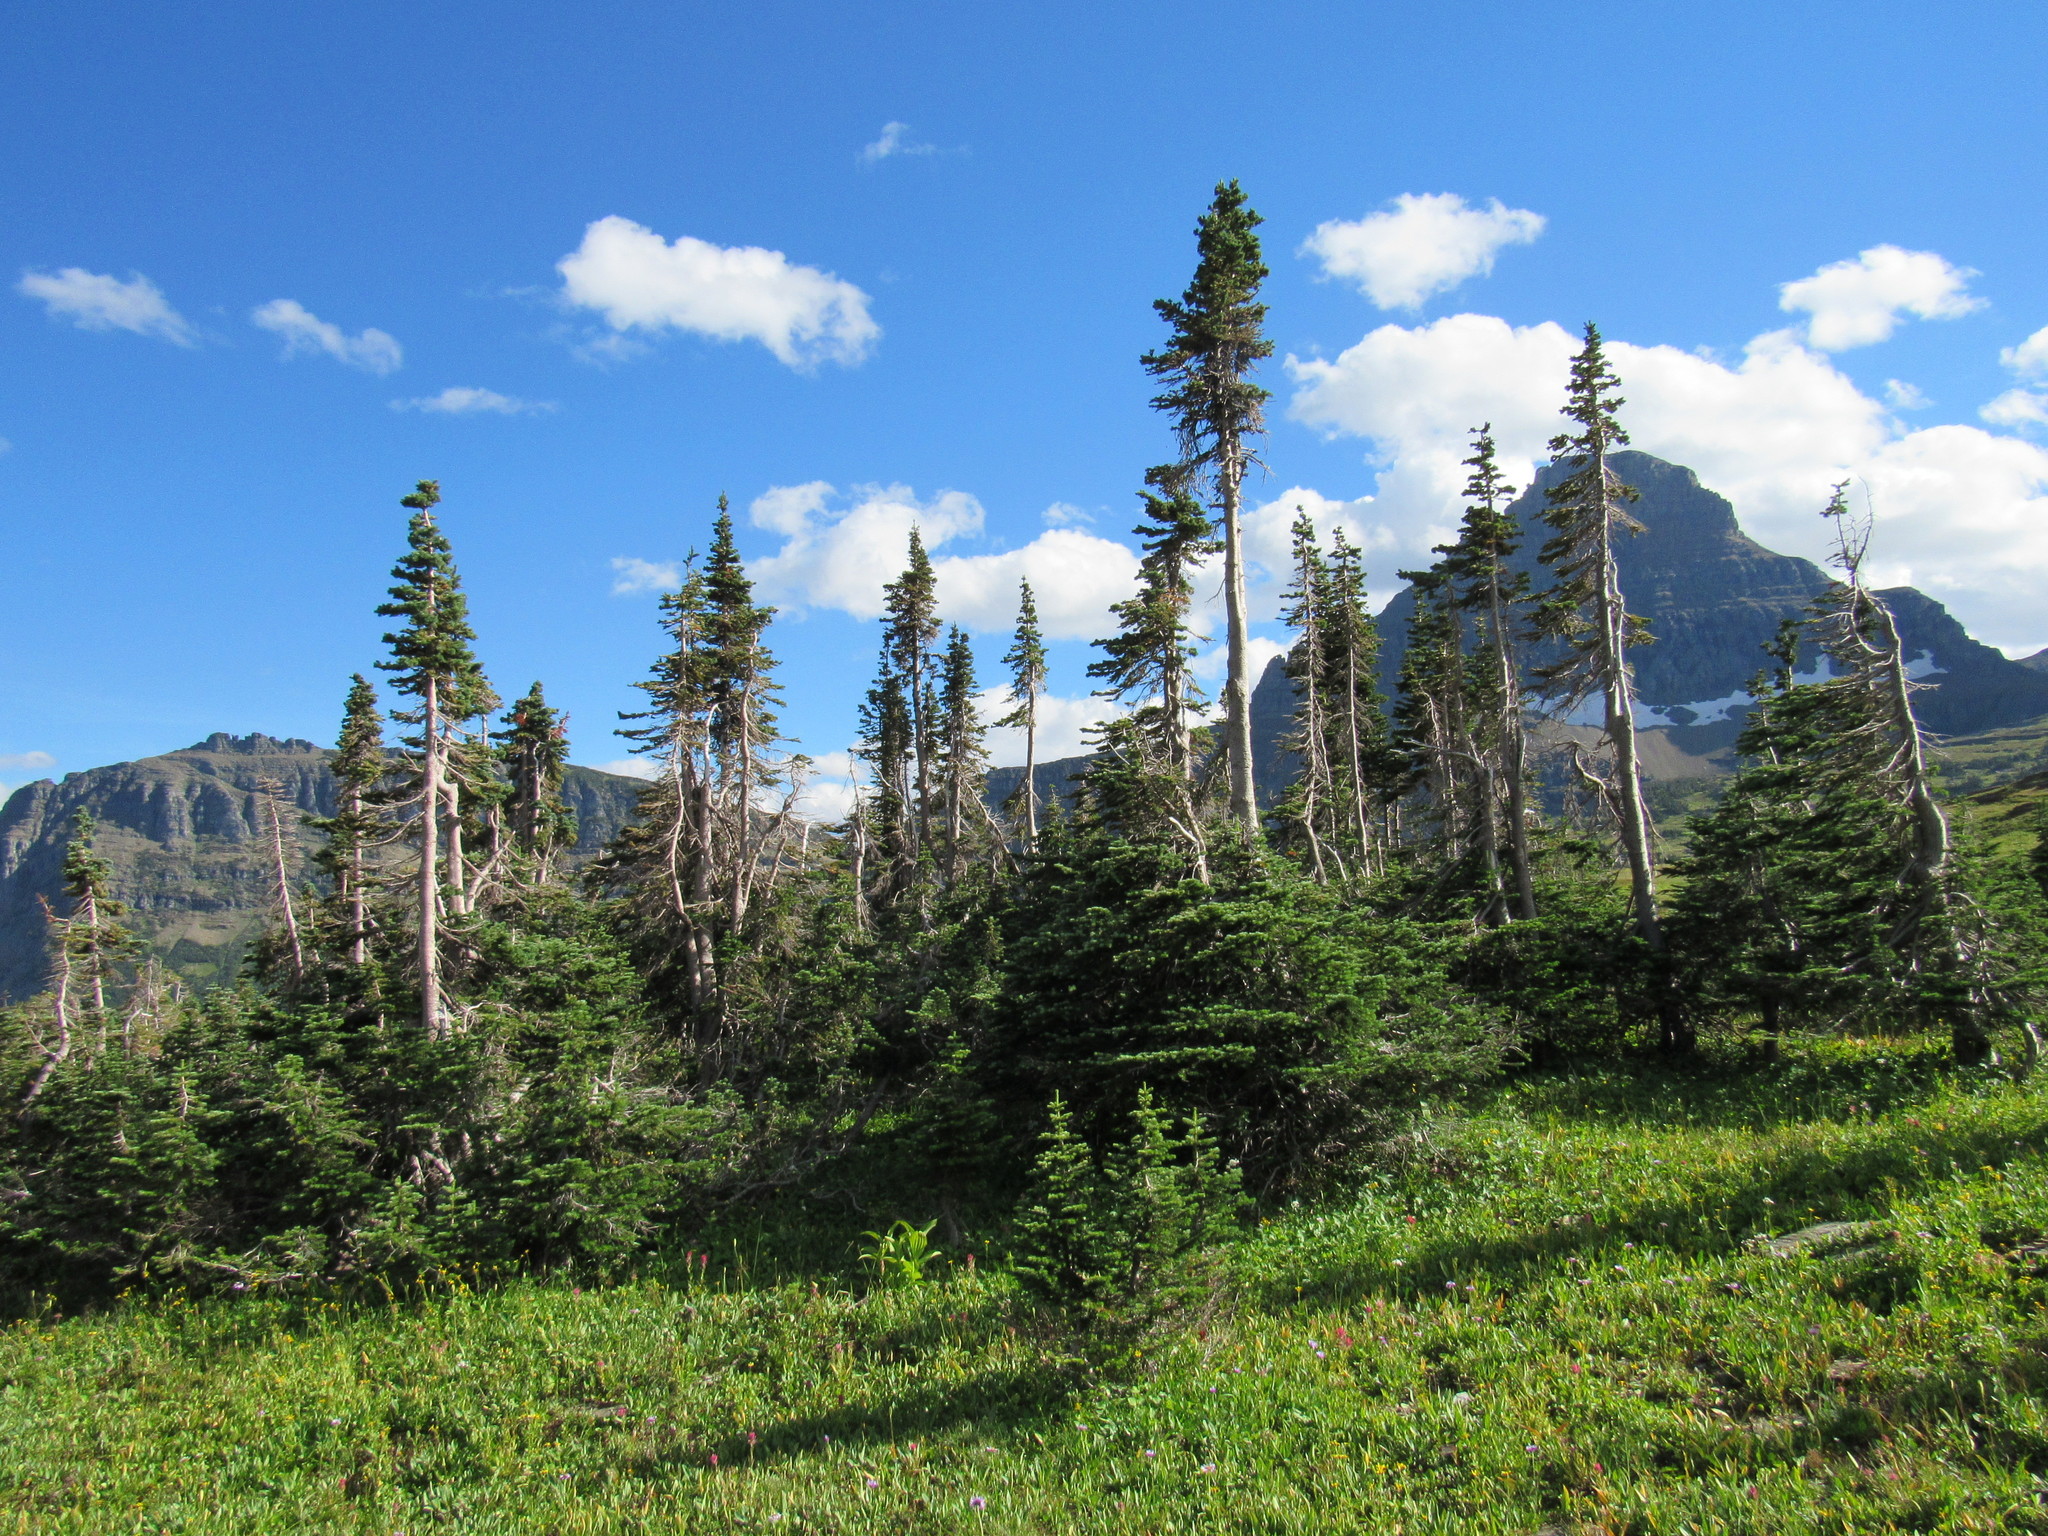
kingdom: Plantae
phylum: Tracheophyta
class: Pinopsida
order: Pinales
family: Pinaceae
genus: Abies
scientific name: Abies lasiocarpa
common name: Subalpine fir
